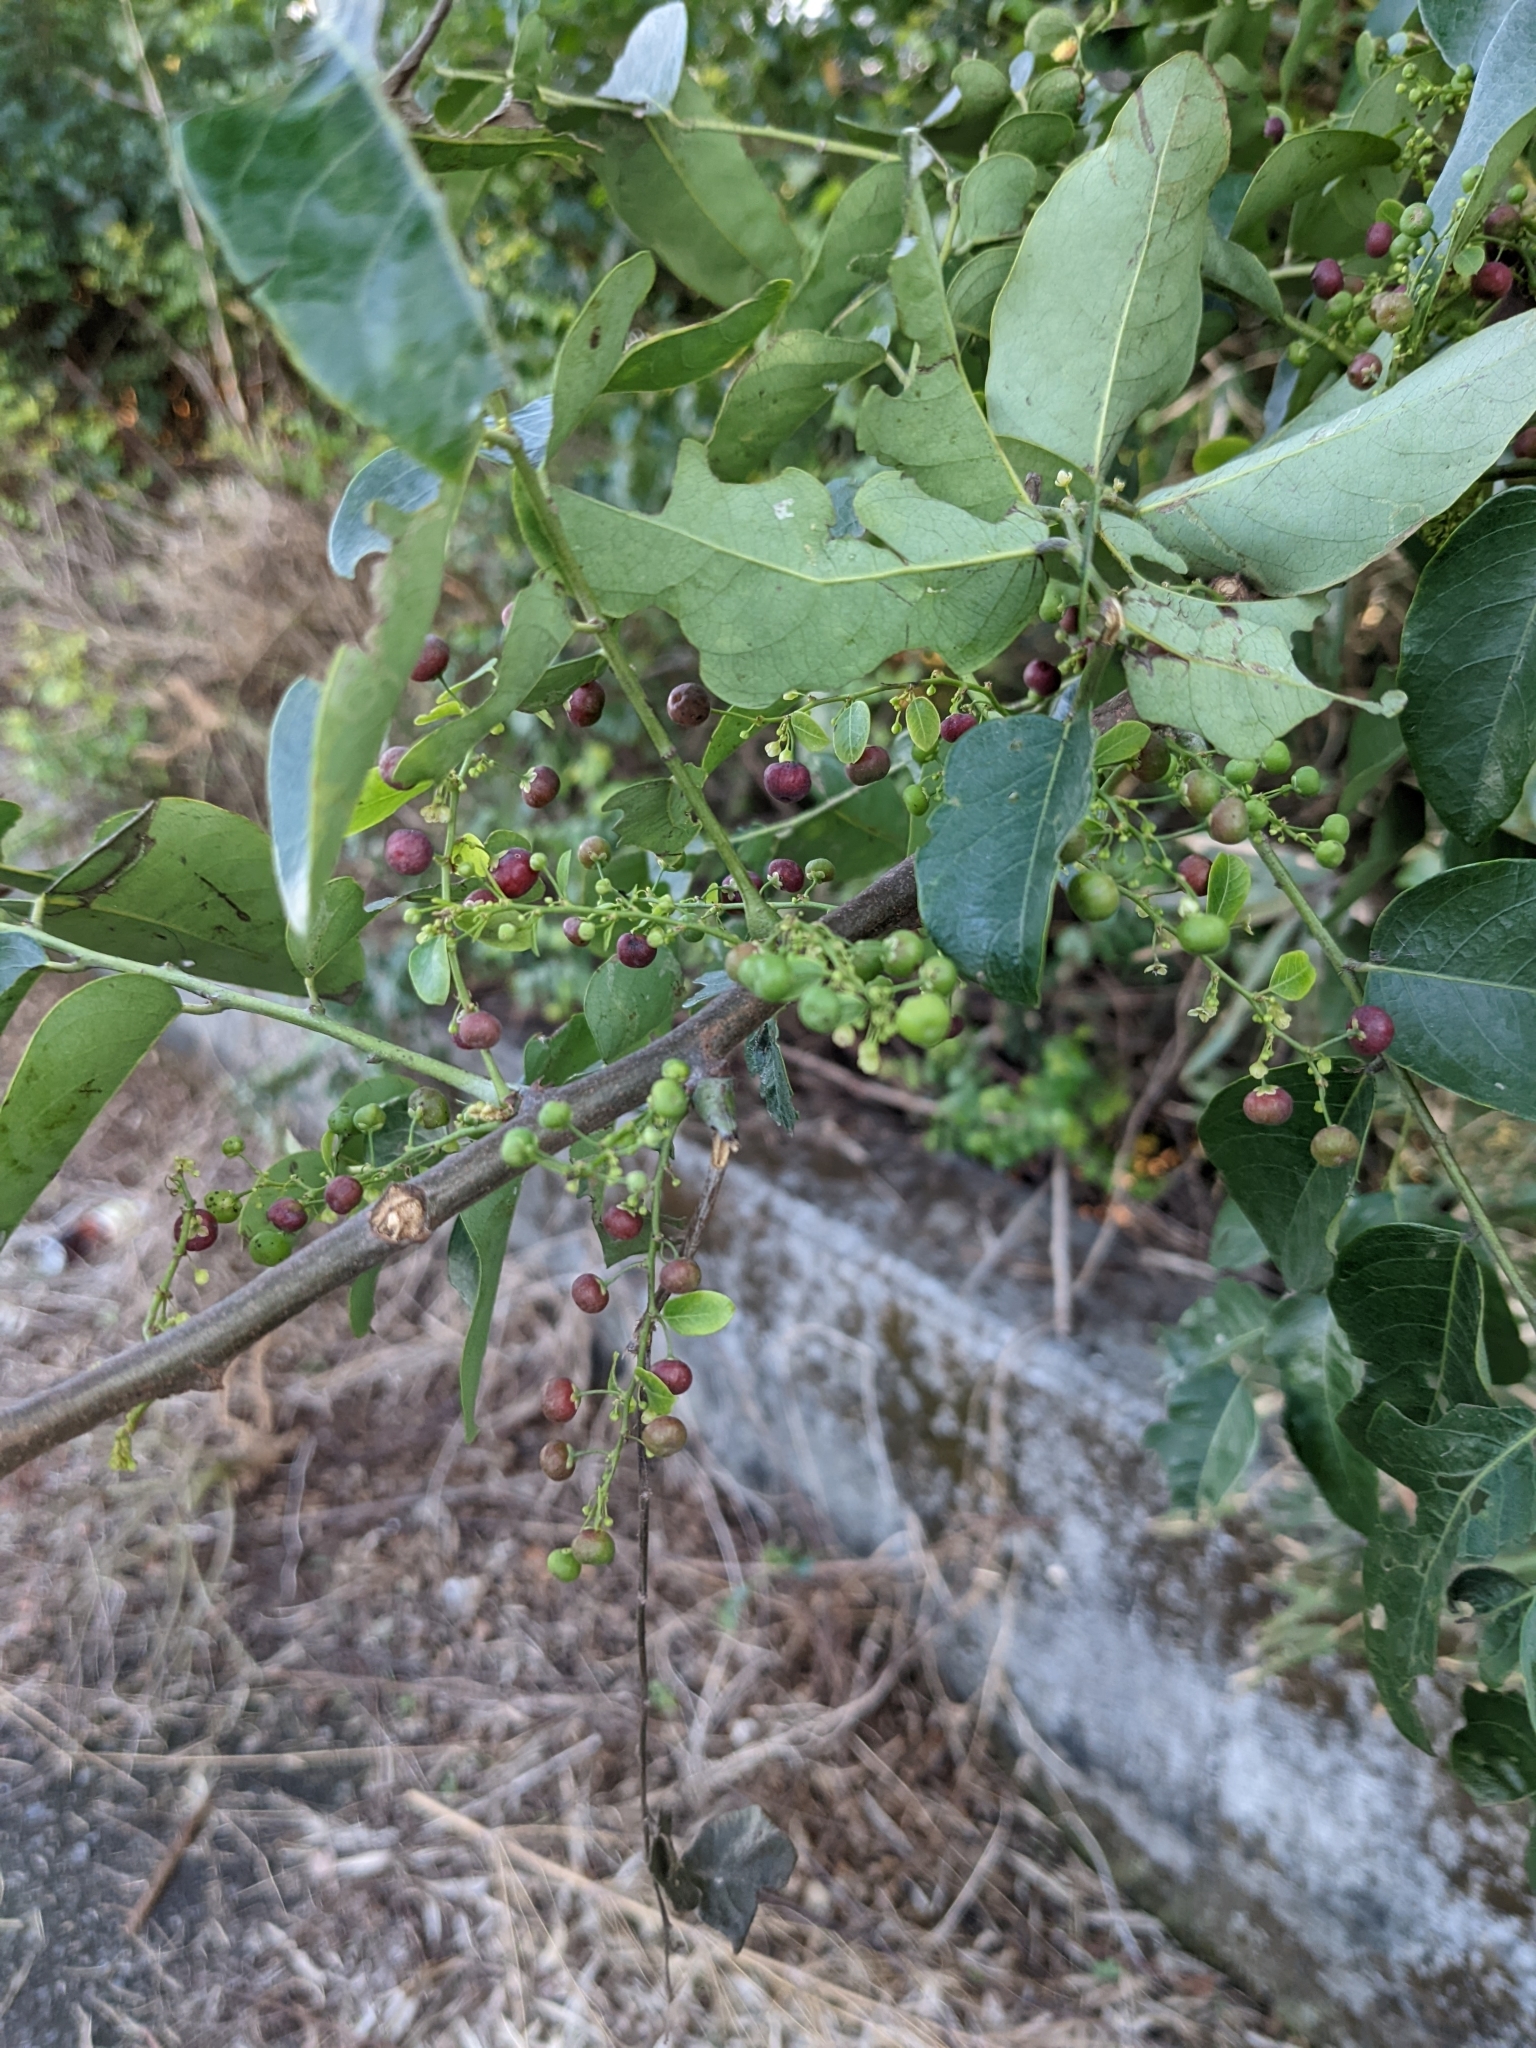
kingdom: Plantae
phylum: Tracheophyta
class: Magnoliopsida
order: Malpighiales
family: Phyllanthaceae
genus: Phyllanthus
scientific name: Phyllanthus reticulatus
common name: Potato bush
